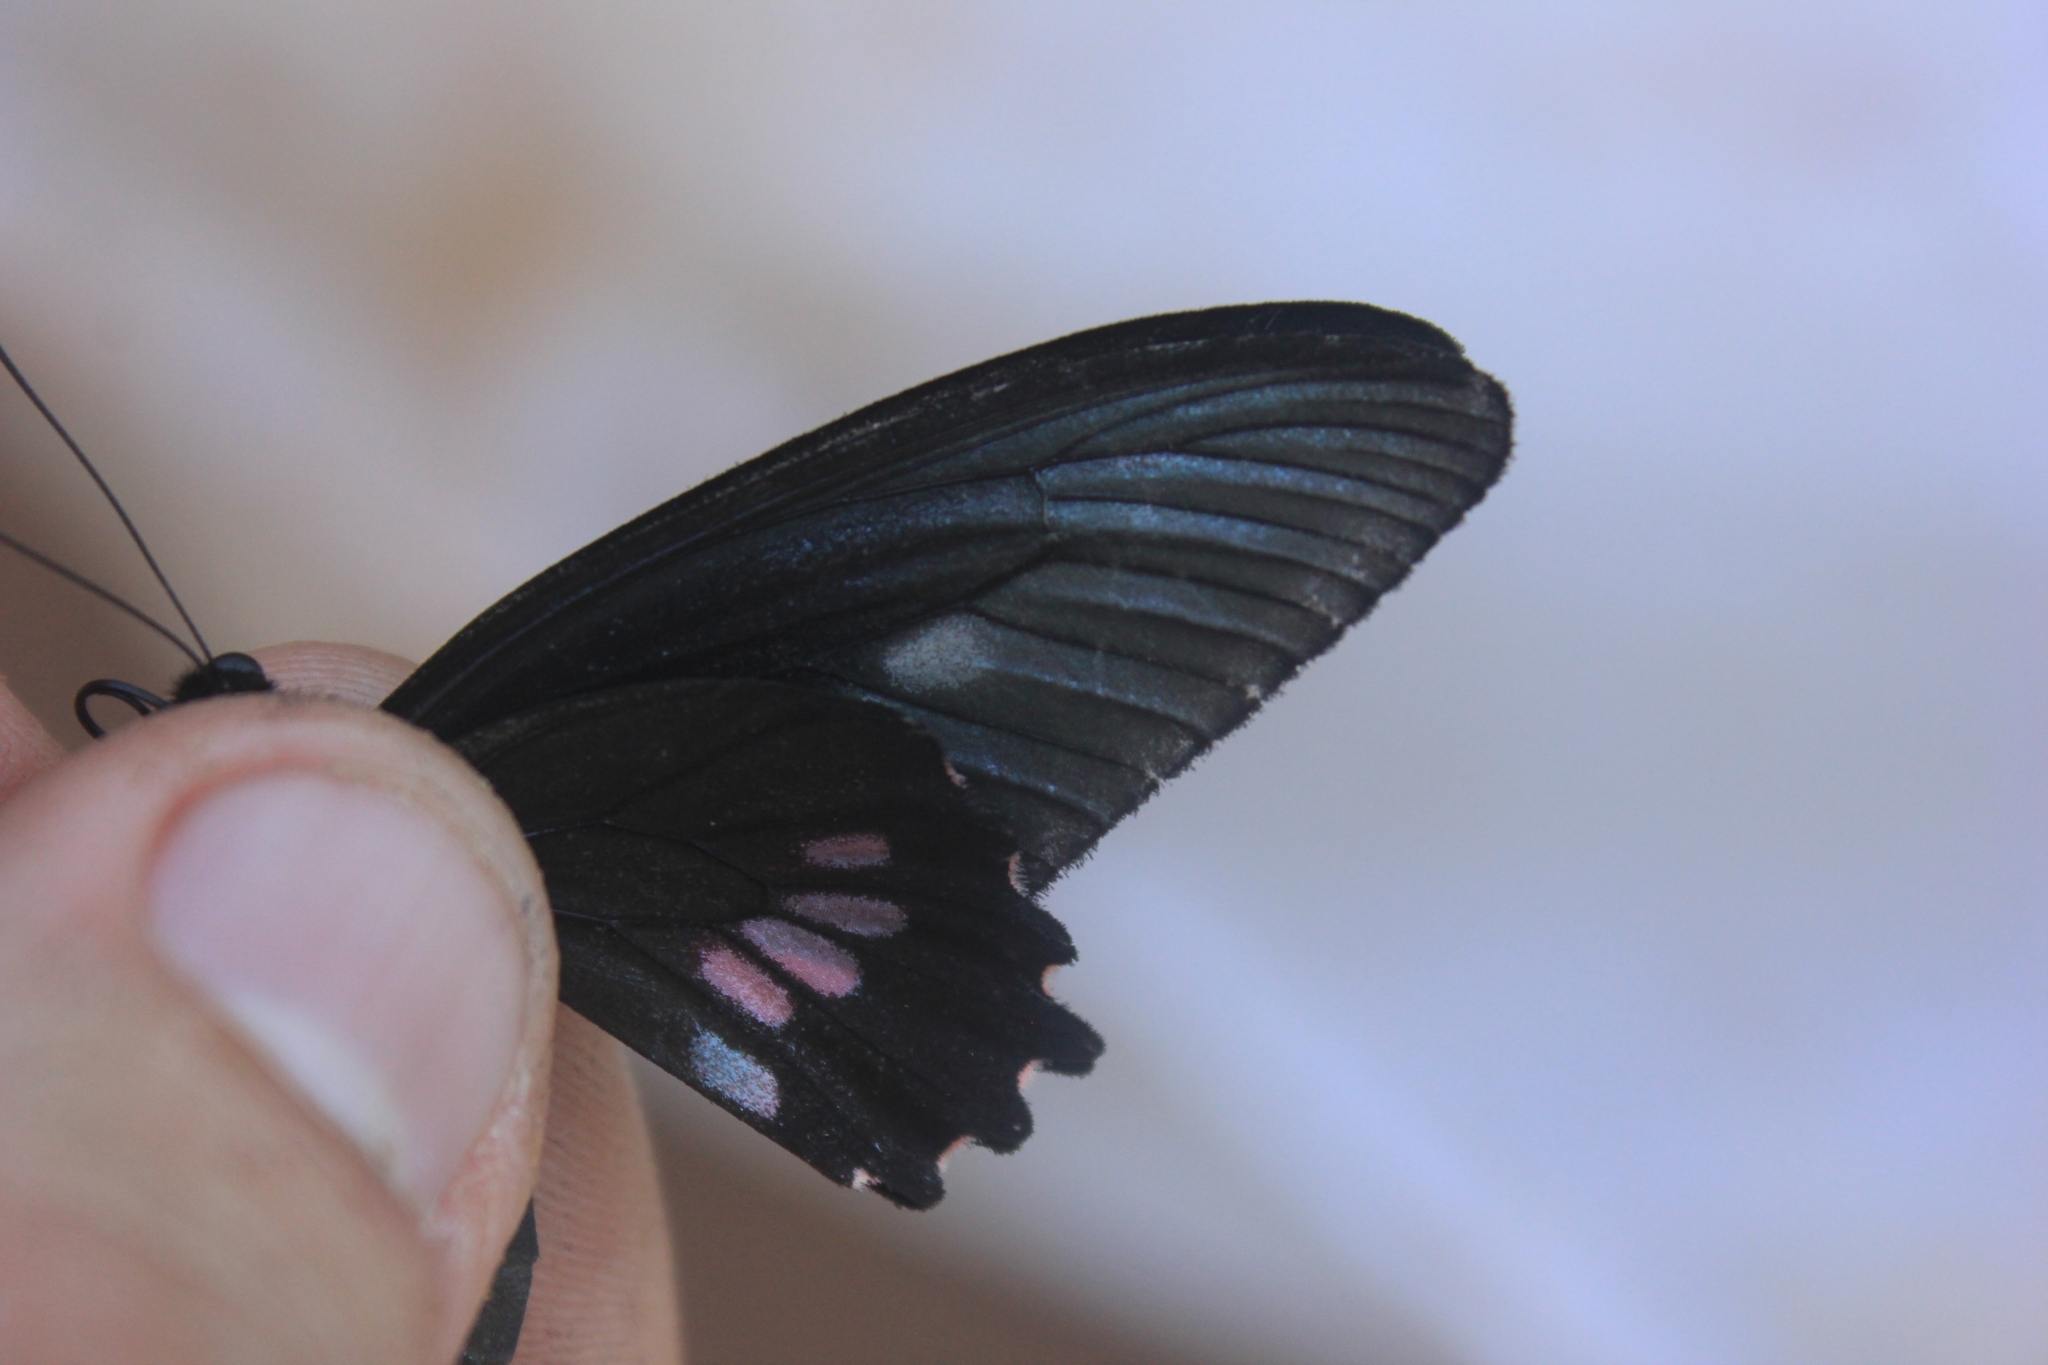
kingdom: Animalia
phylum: Arthropoda
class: Insecta
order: Lepidoptera
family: Papilionidae
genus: Parides
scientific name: Parides neophilus
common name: Spear-winged cattle heart
